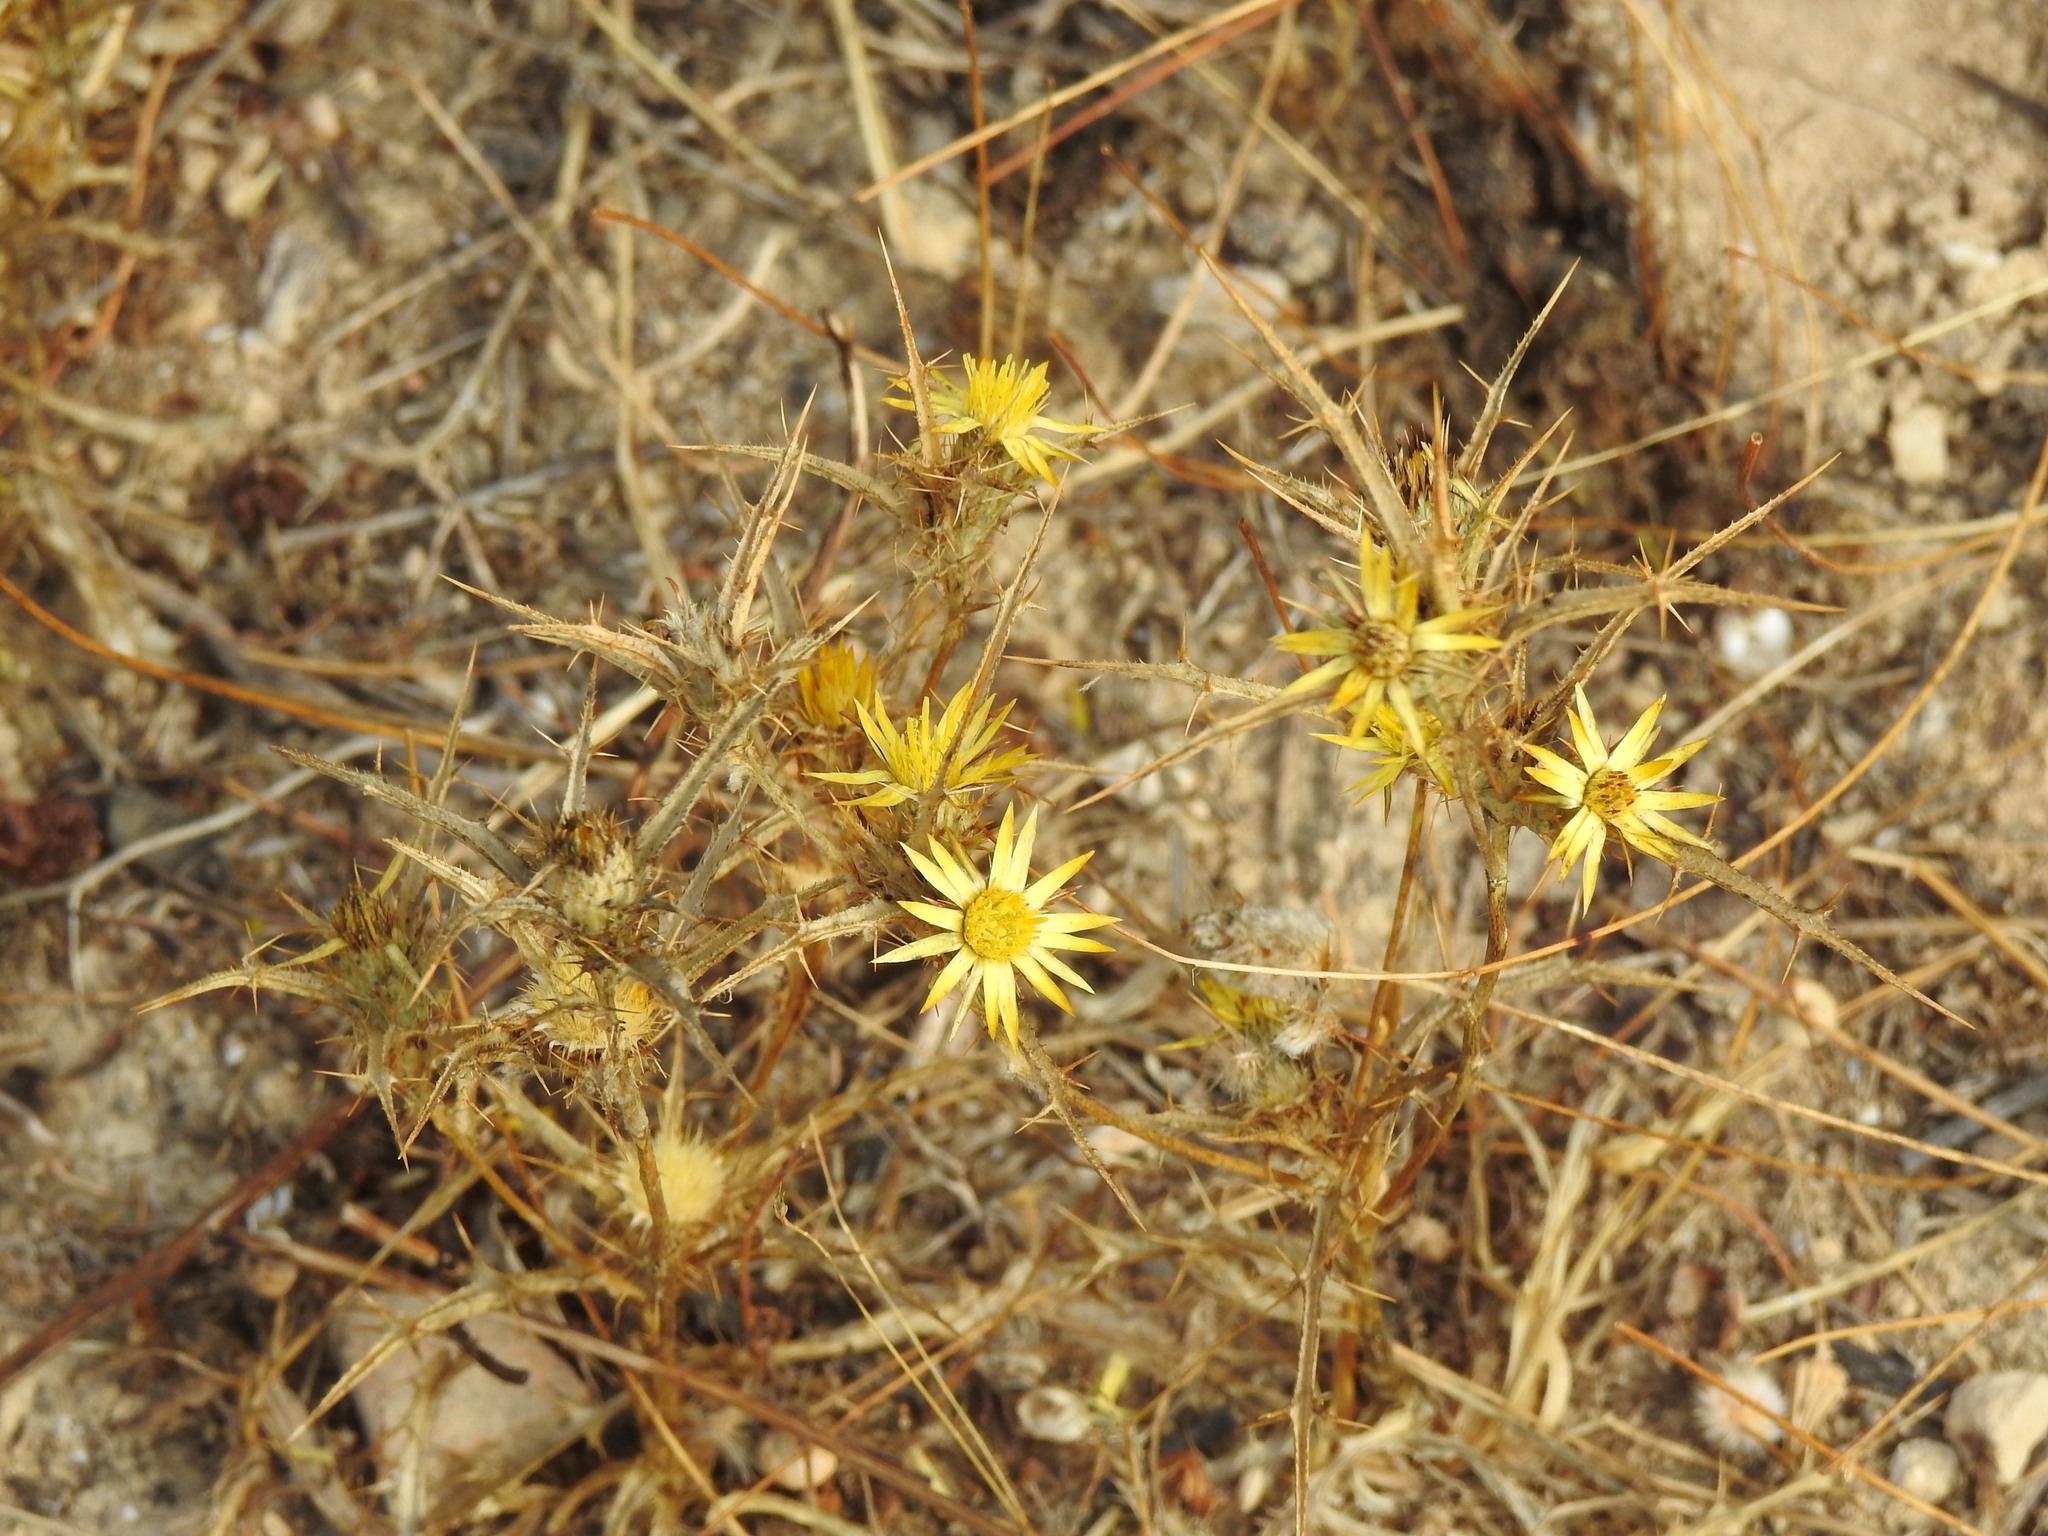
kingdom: Plantae
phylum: Tracheophyta
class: Magnoliopsida
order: Asterales
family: Asteraceae
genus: Carlina
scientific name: Carlina racemosa
